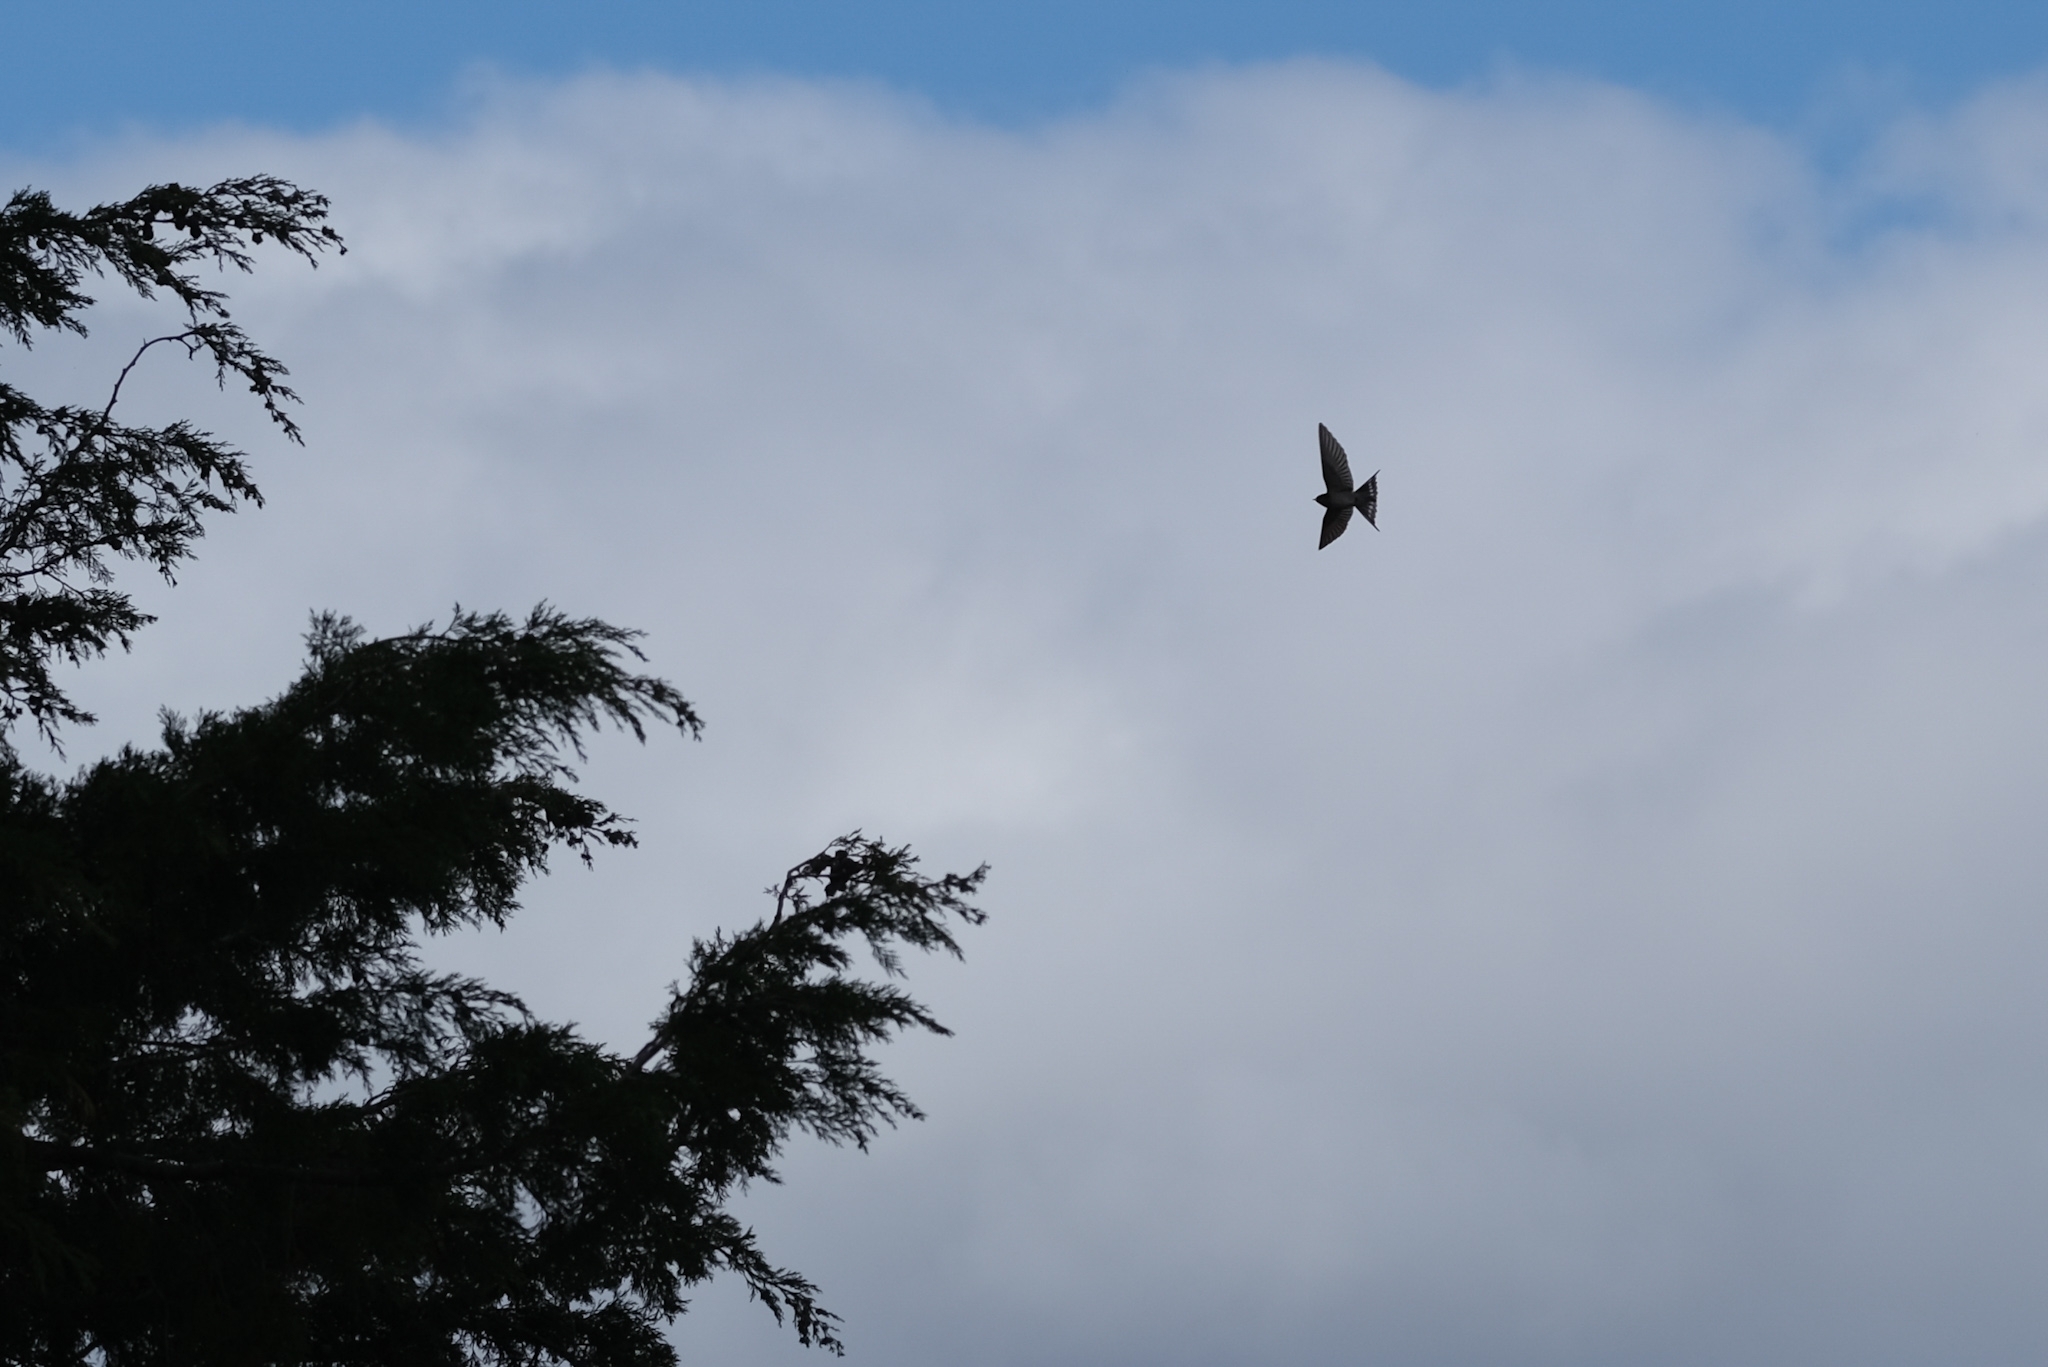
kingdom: Animalia
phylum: Chordata
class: Aves
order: Passeriformes
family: Hirundinidae
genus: Hirundo
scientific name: Hirundo neoxena
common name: Welcome swallow
